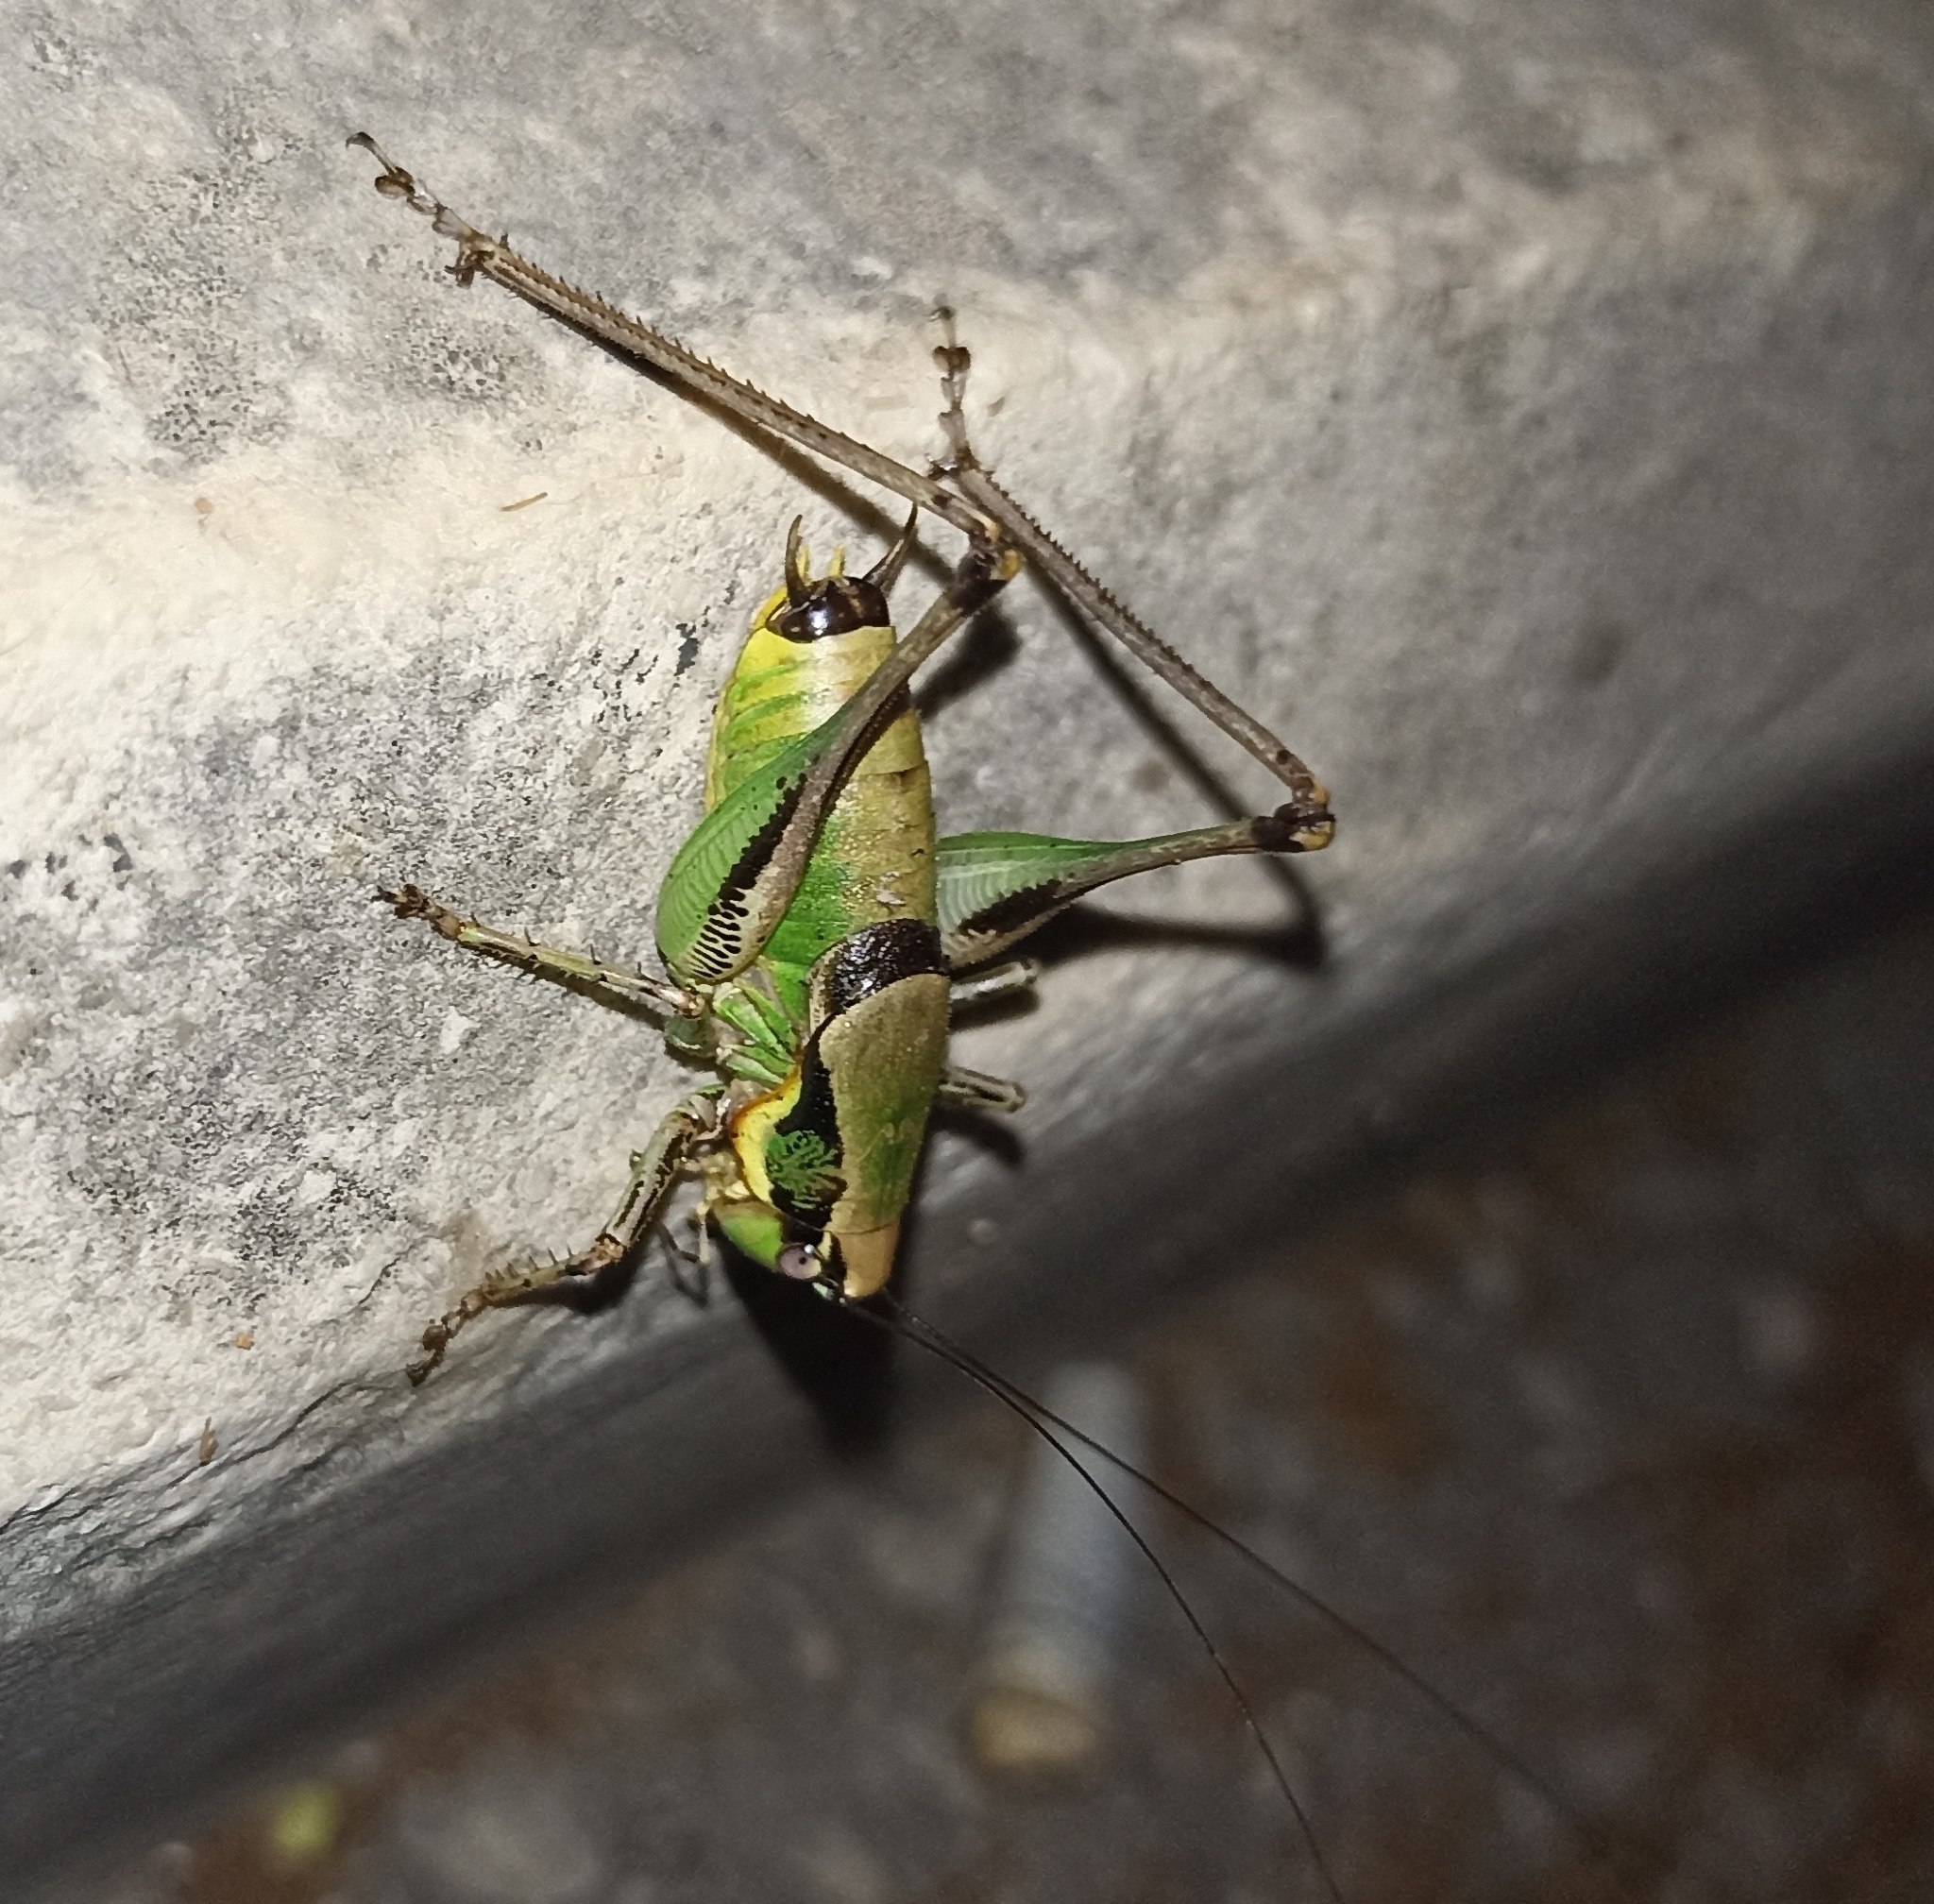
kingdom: Animalia
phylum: Arthropoda
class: Insecta
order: Orthoptera
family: Tettigoniidae
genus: Eupholidoptera
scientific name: Eupholidoptera schmidti
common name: Schmidt's marbled bush-cricket
